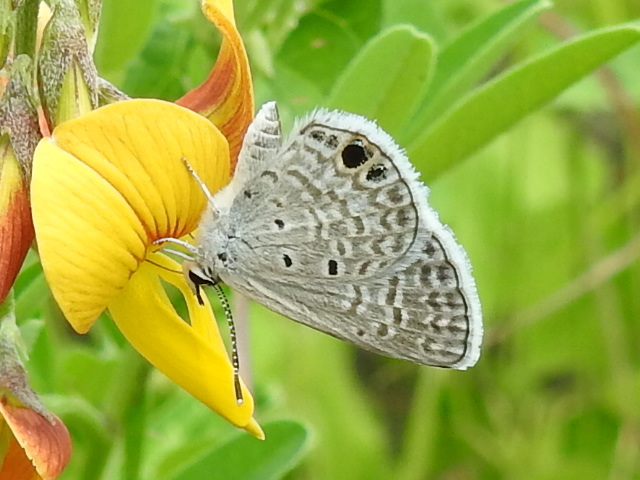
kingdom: Animalia
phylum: Arthropoda
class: Insecta
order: Lepidoptera
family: Lycaenidae
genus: Hemiargus
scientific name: Hemiargus ceraunus
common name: Ceraunus blue
